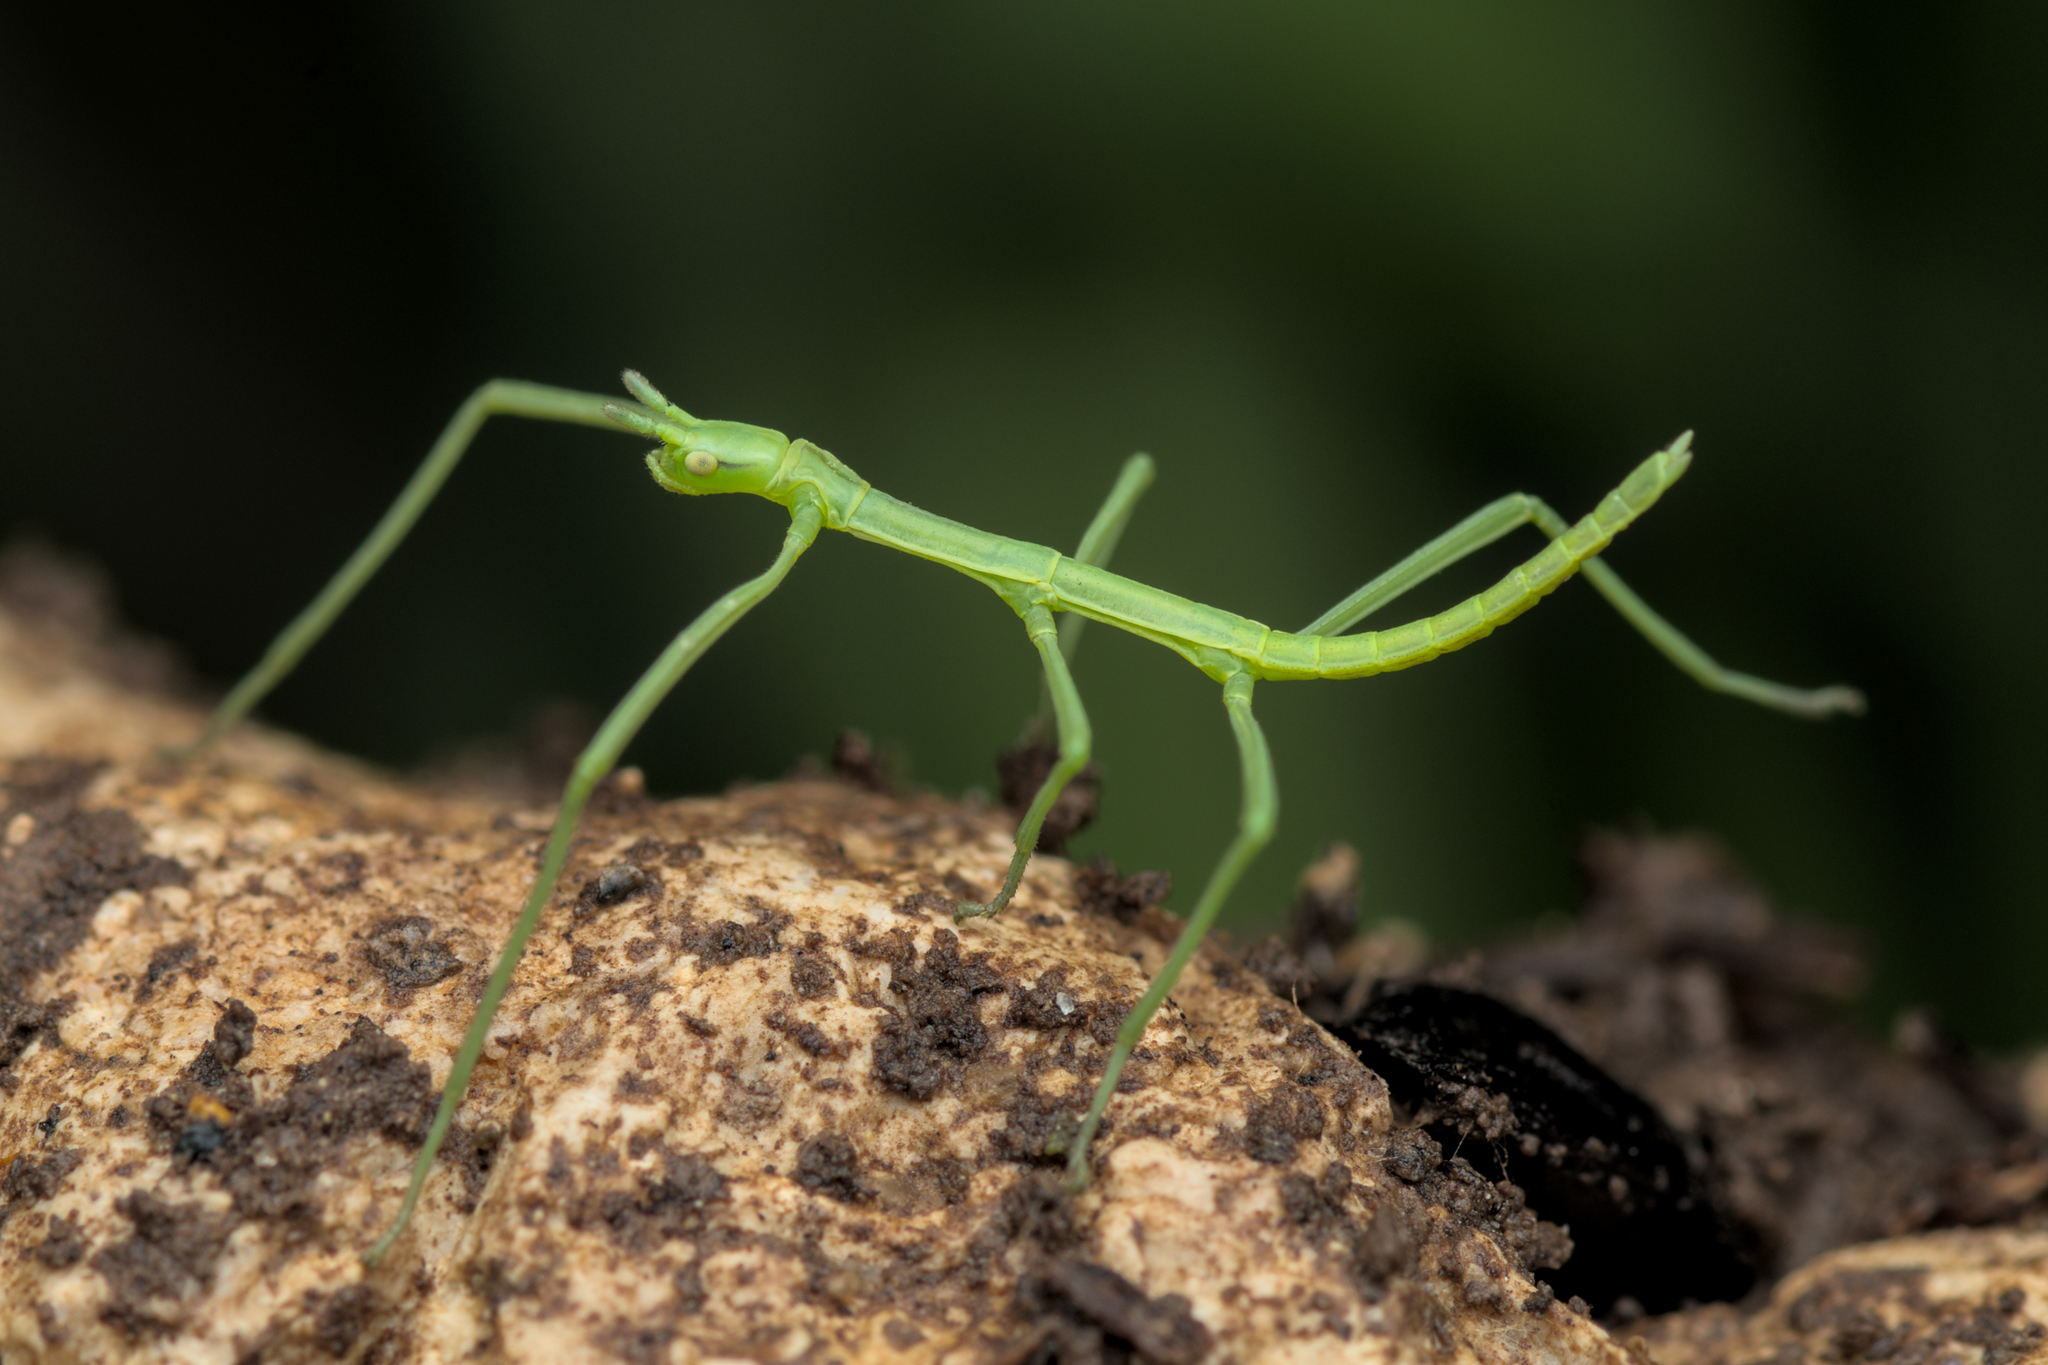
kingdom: Animalia
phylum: Arthropoda
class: Insecta
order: Phasmida
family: Bacillidae
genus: Clonopsis
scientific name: Clonopsis gallica
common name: French stick insect
